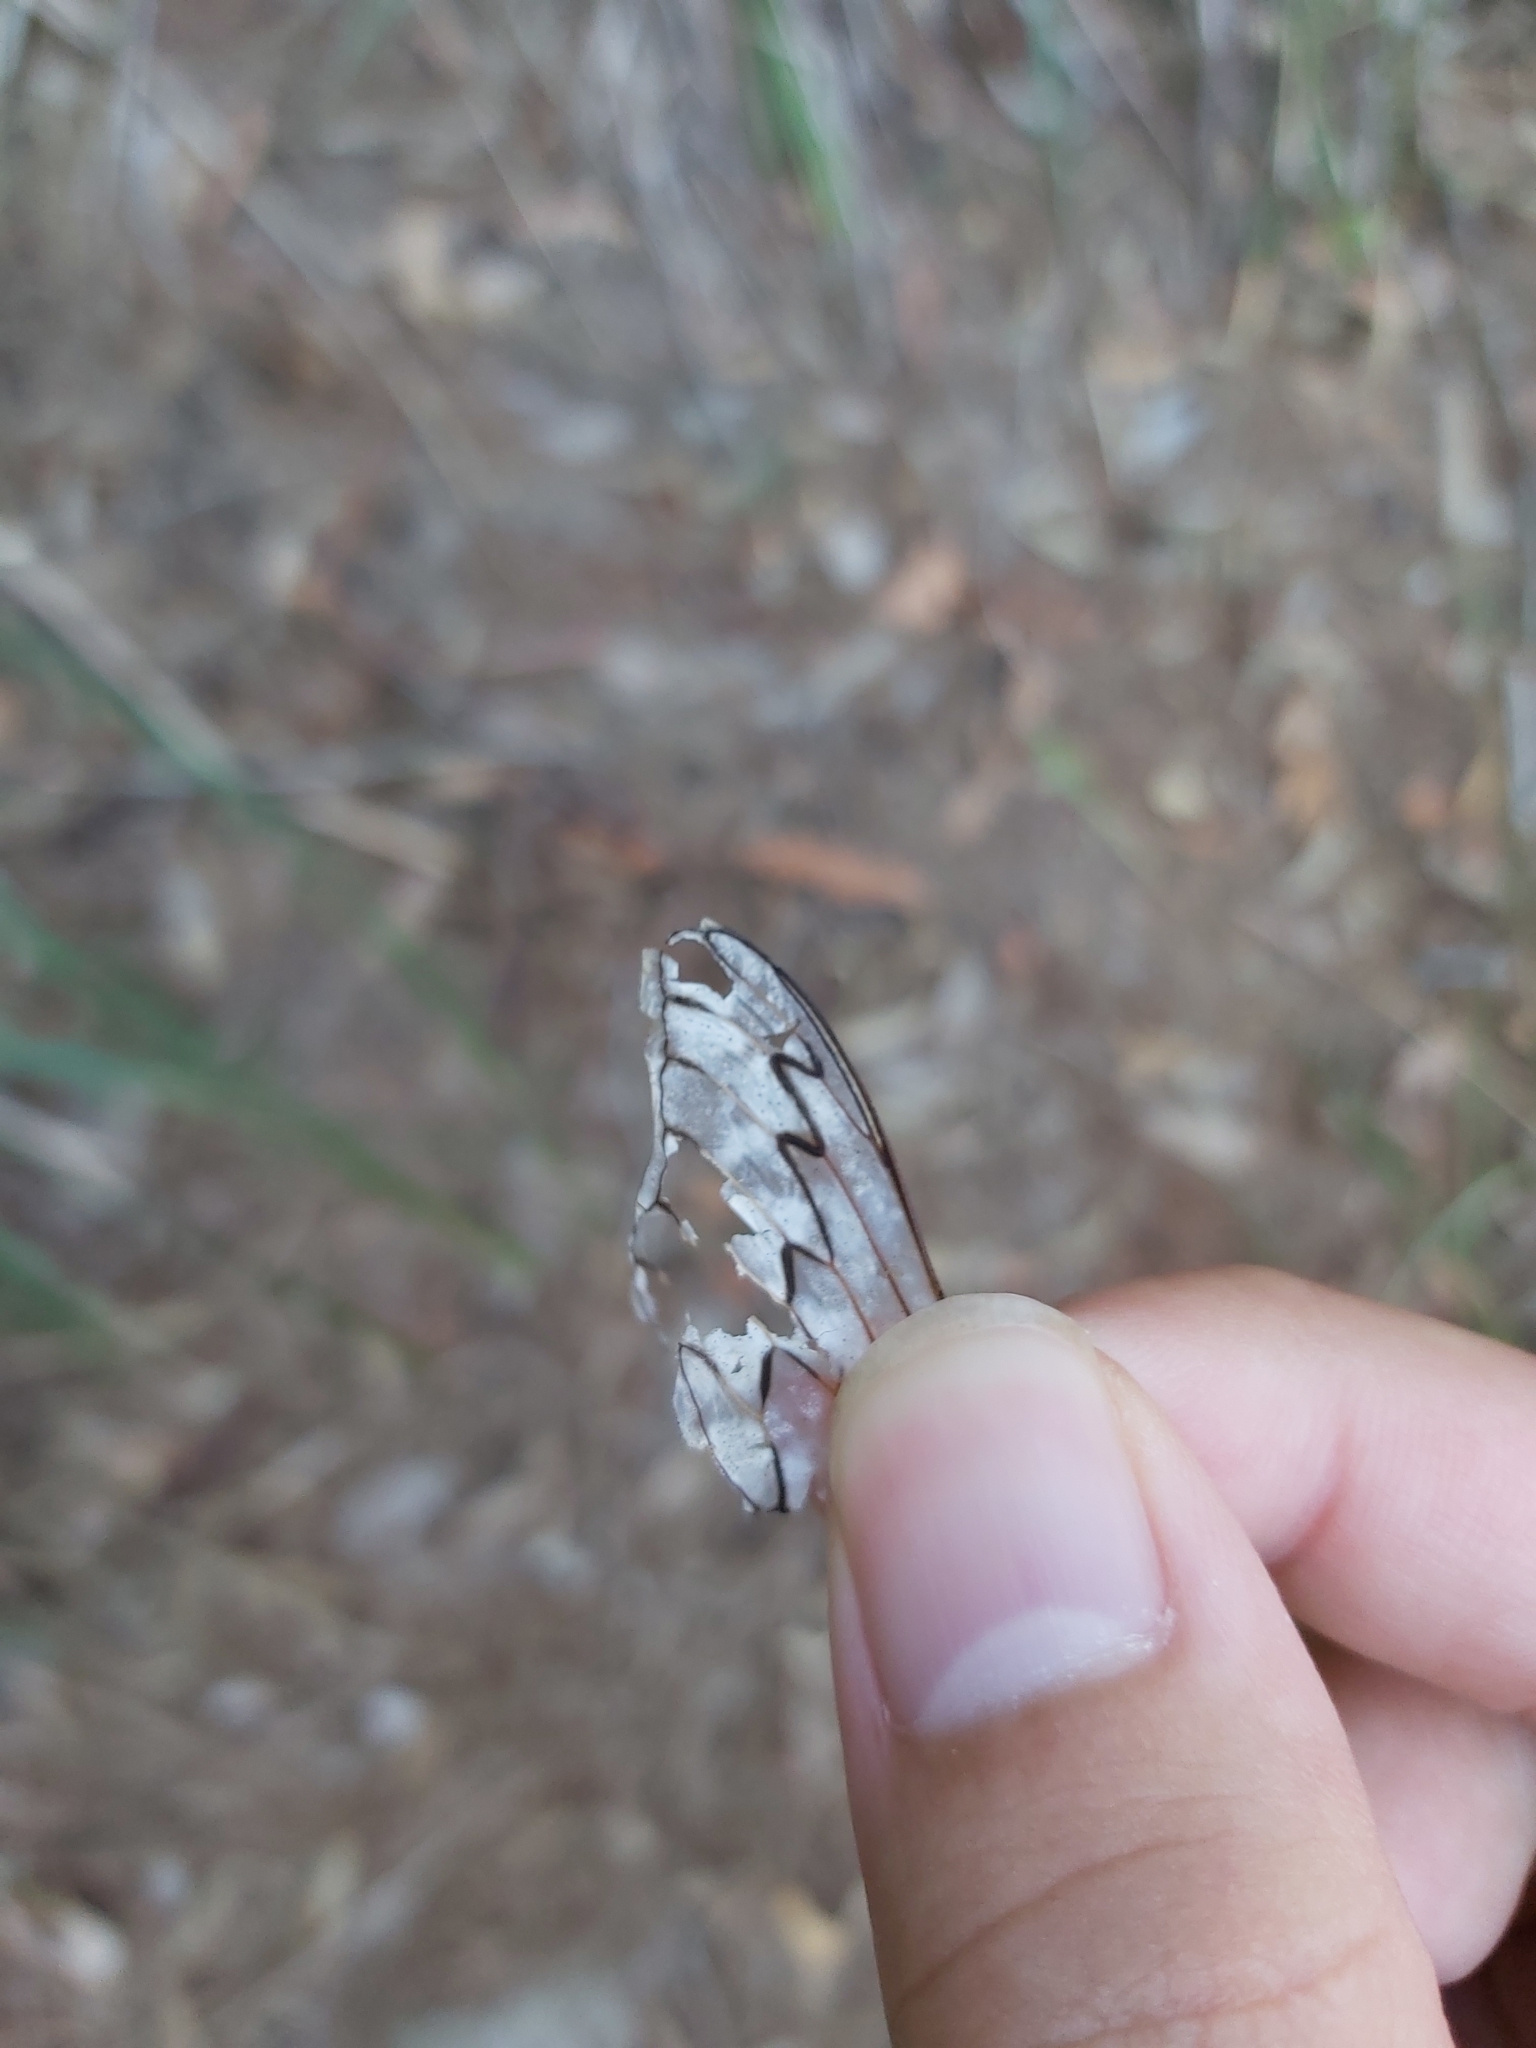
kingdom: Animalia
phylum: Arthropoda
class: Insecta
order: Hemiptera
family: Cicadidae
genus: Henicopsaltria
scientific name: Henicopsaltria eydouxii
